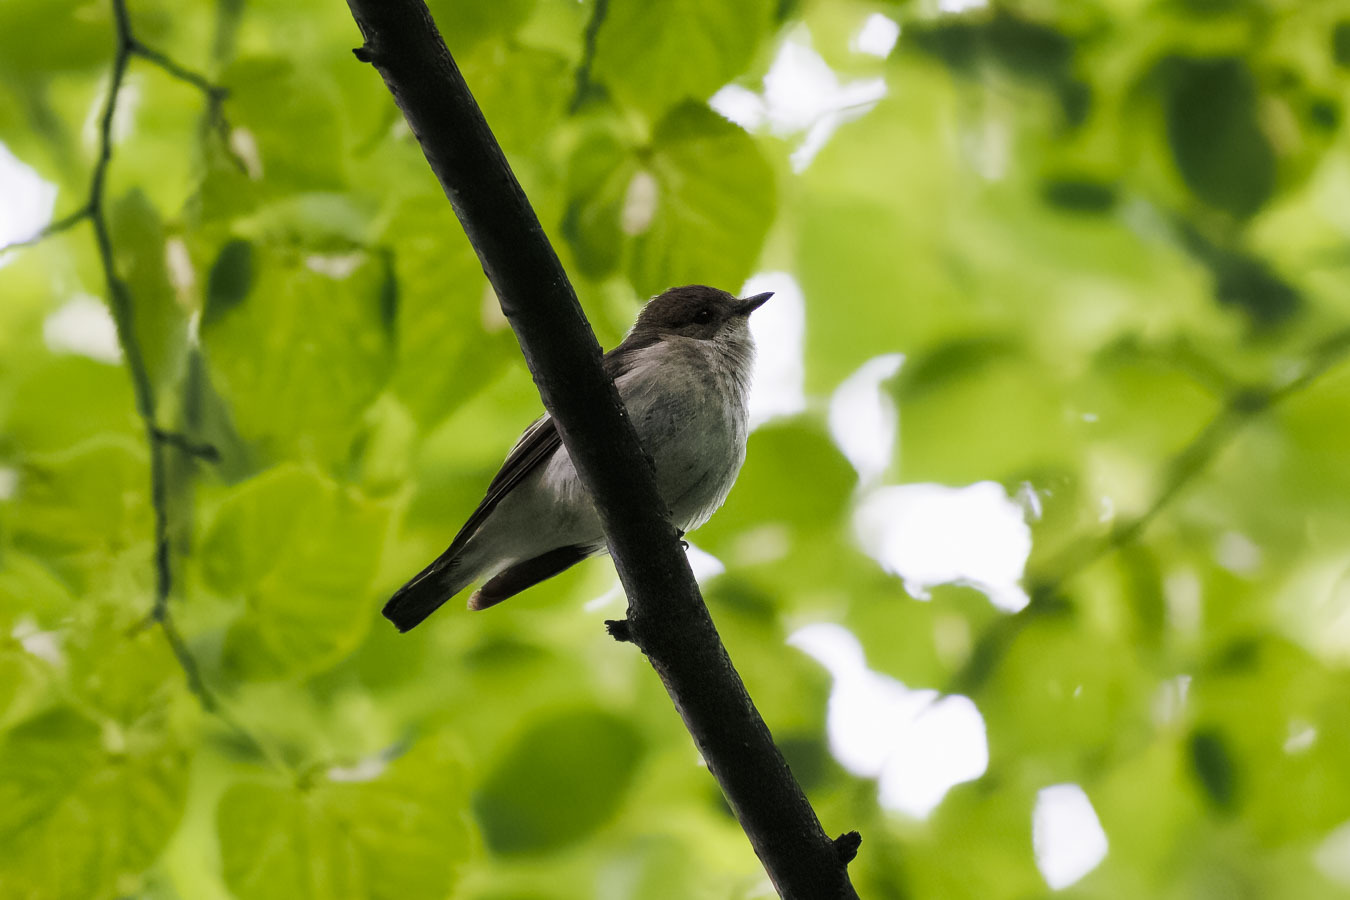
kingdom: Animalia
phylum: Chordata
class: Aves
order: Passeriformes
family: Muscicapidae
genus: Ficedula
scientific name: Ficedula hypoleuca
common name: European pied flycatcher
